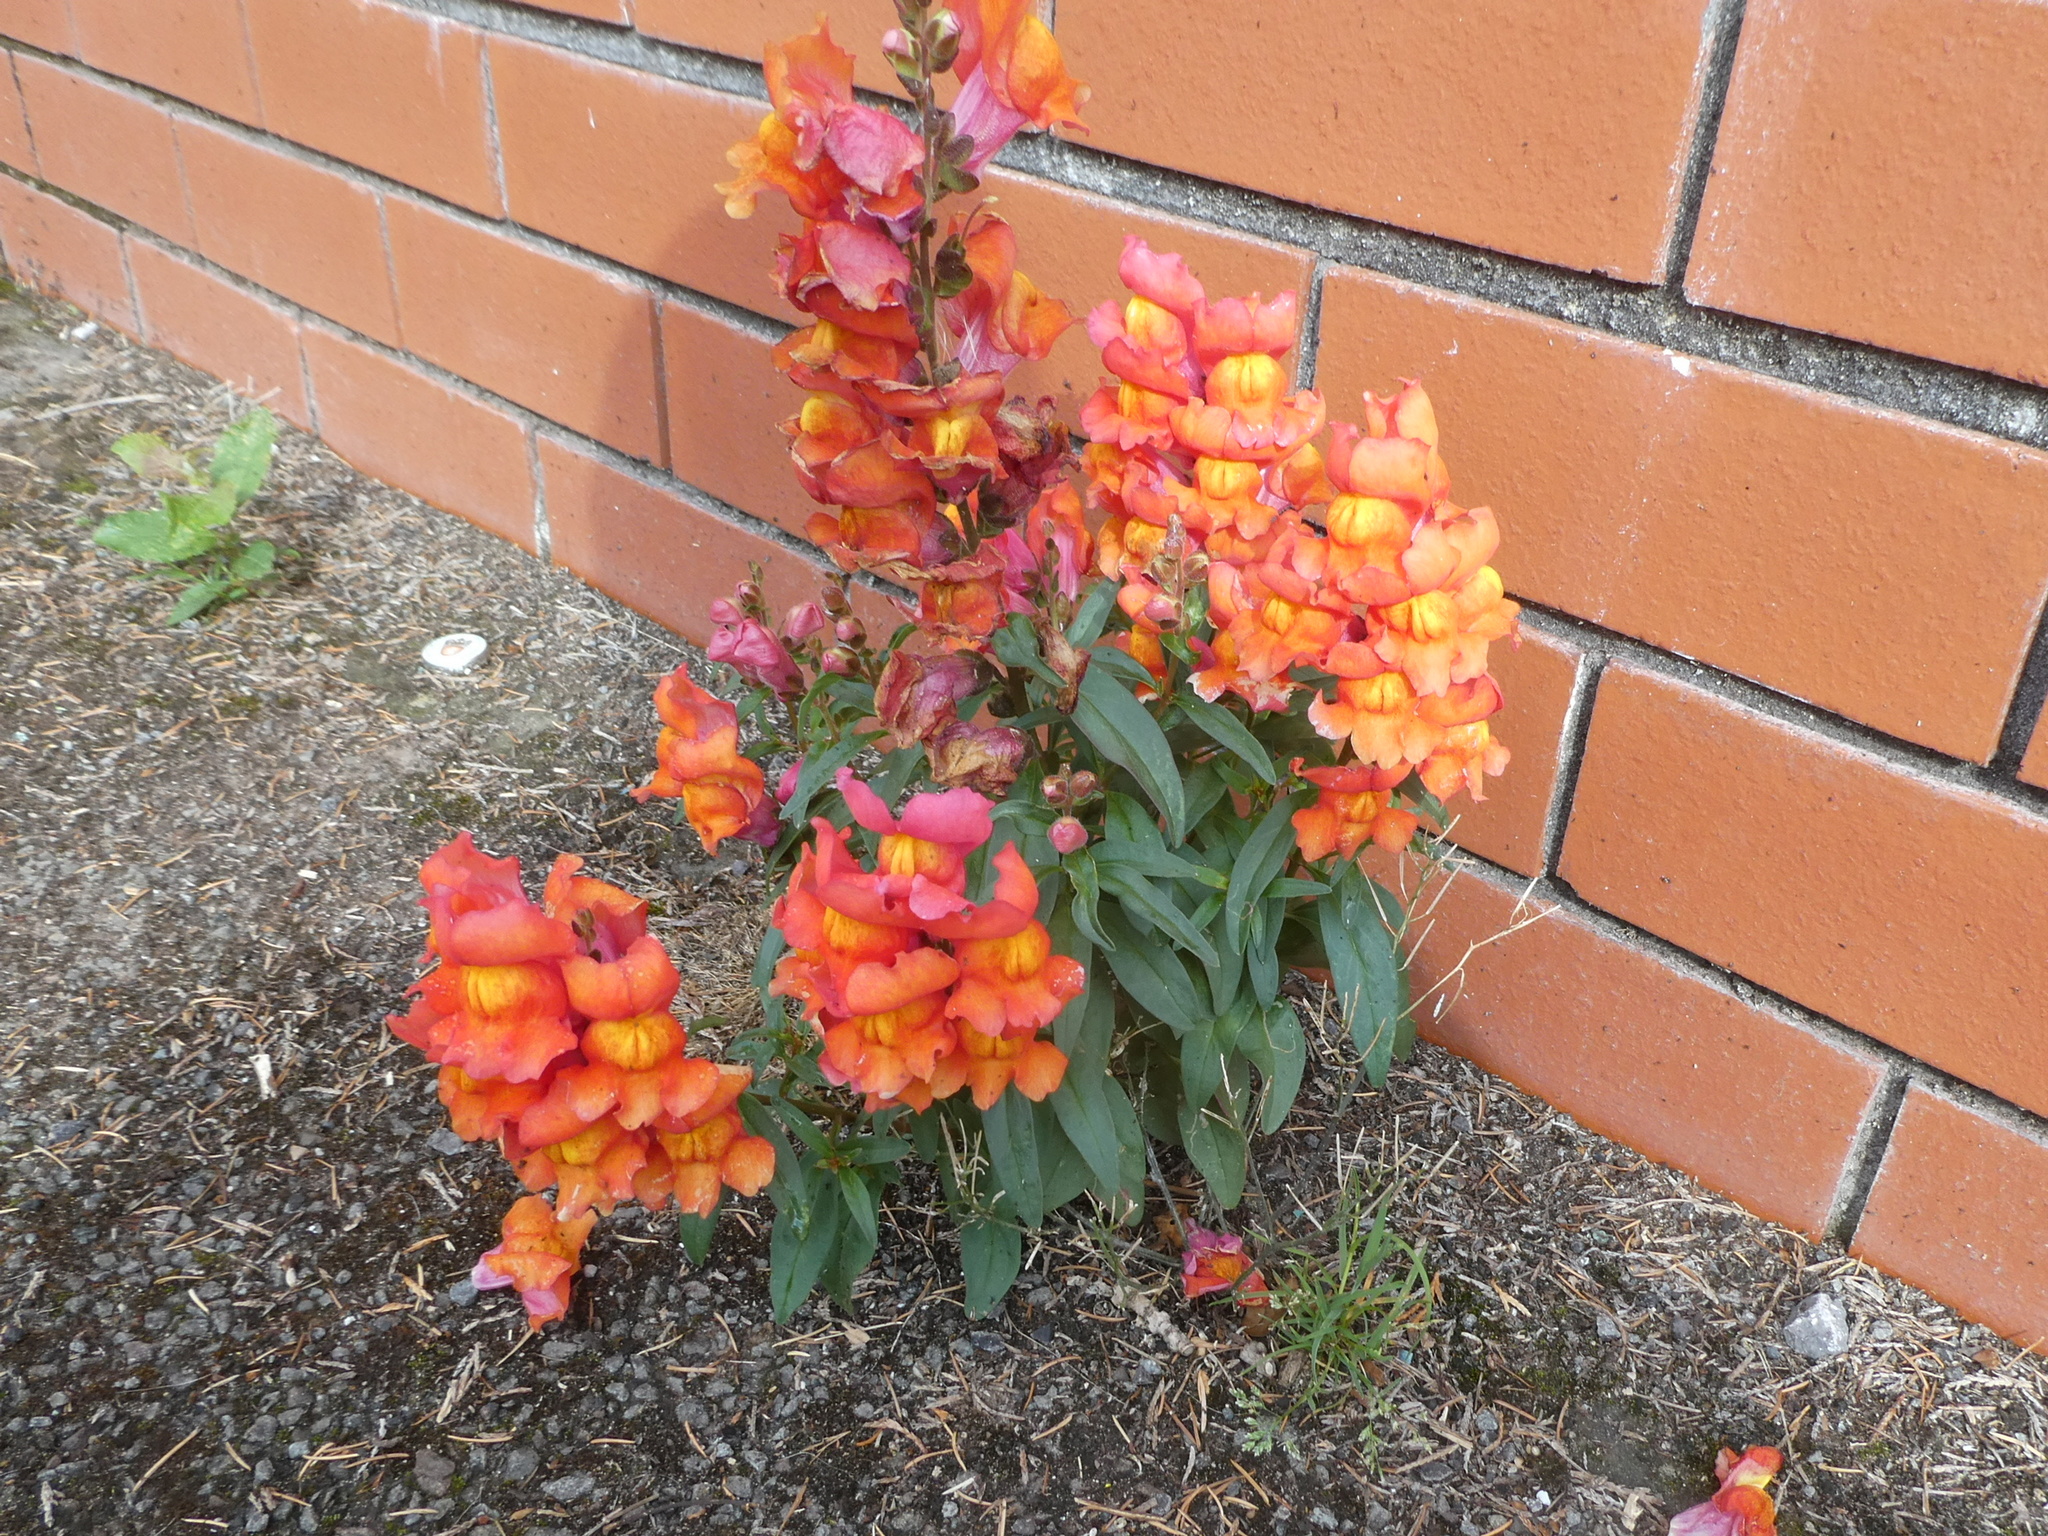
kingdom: Plantae
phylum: Tracheophyta
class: Magnoliopsida
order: Lamiales
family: Plantaginaceae
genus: Antirrhinum
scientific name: Antirrhinum majus
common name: Snapdragon
